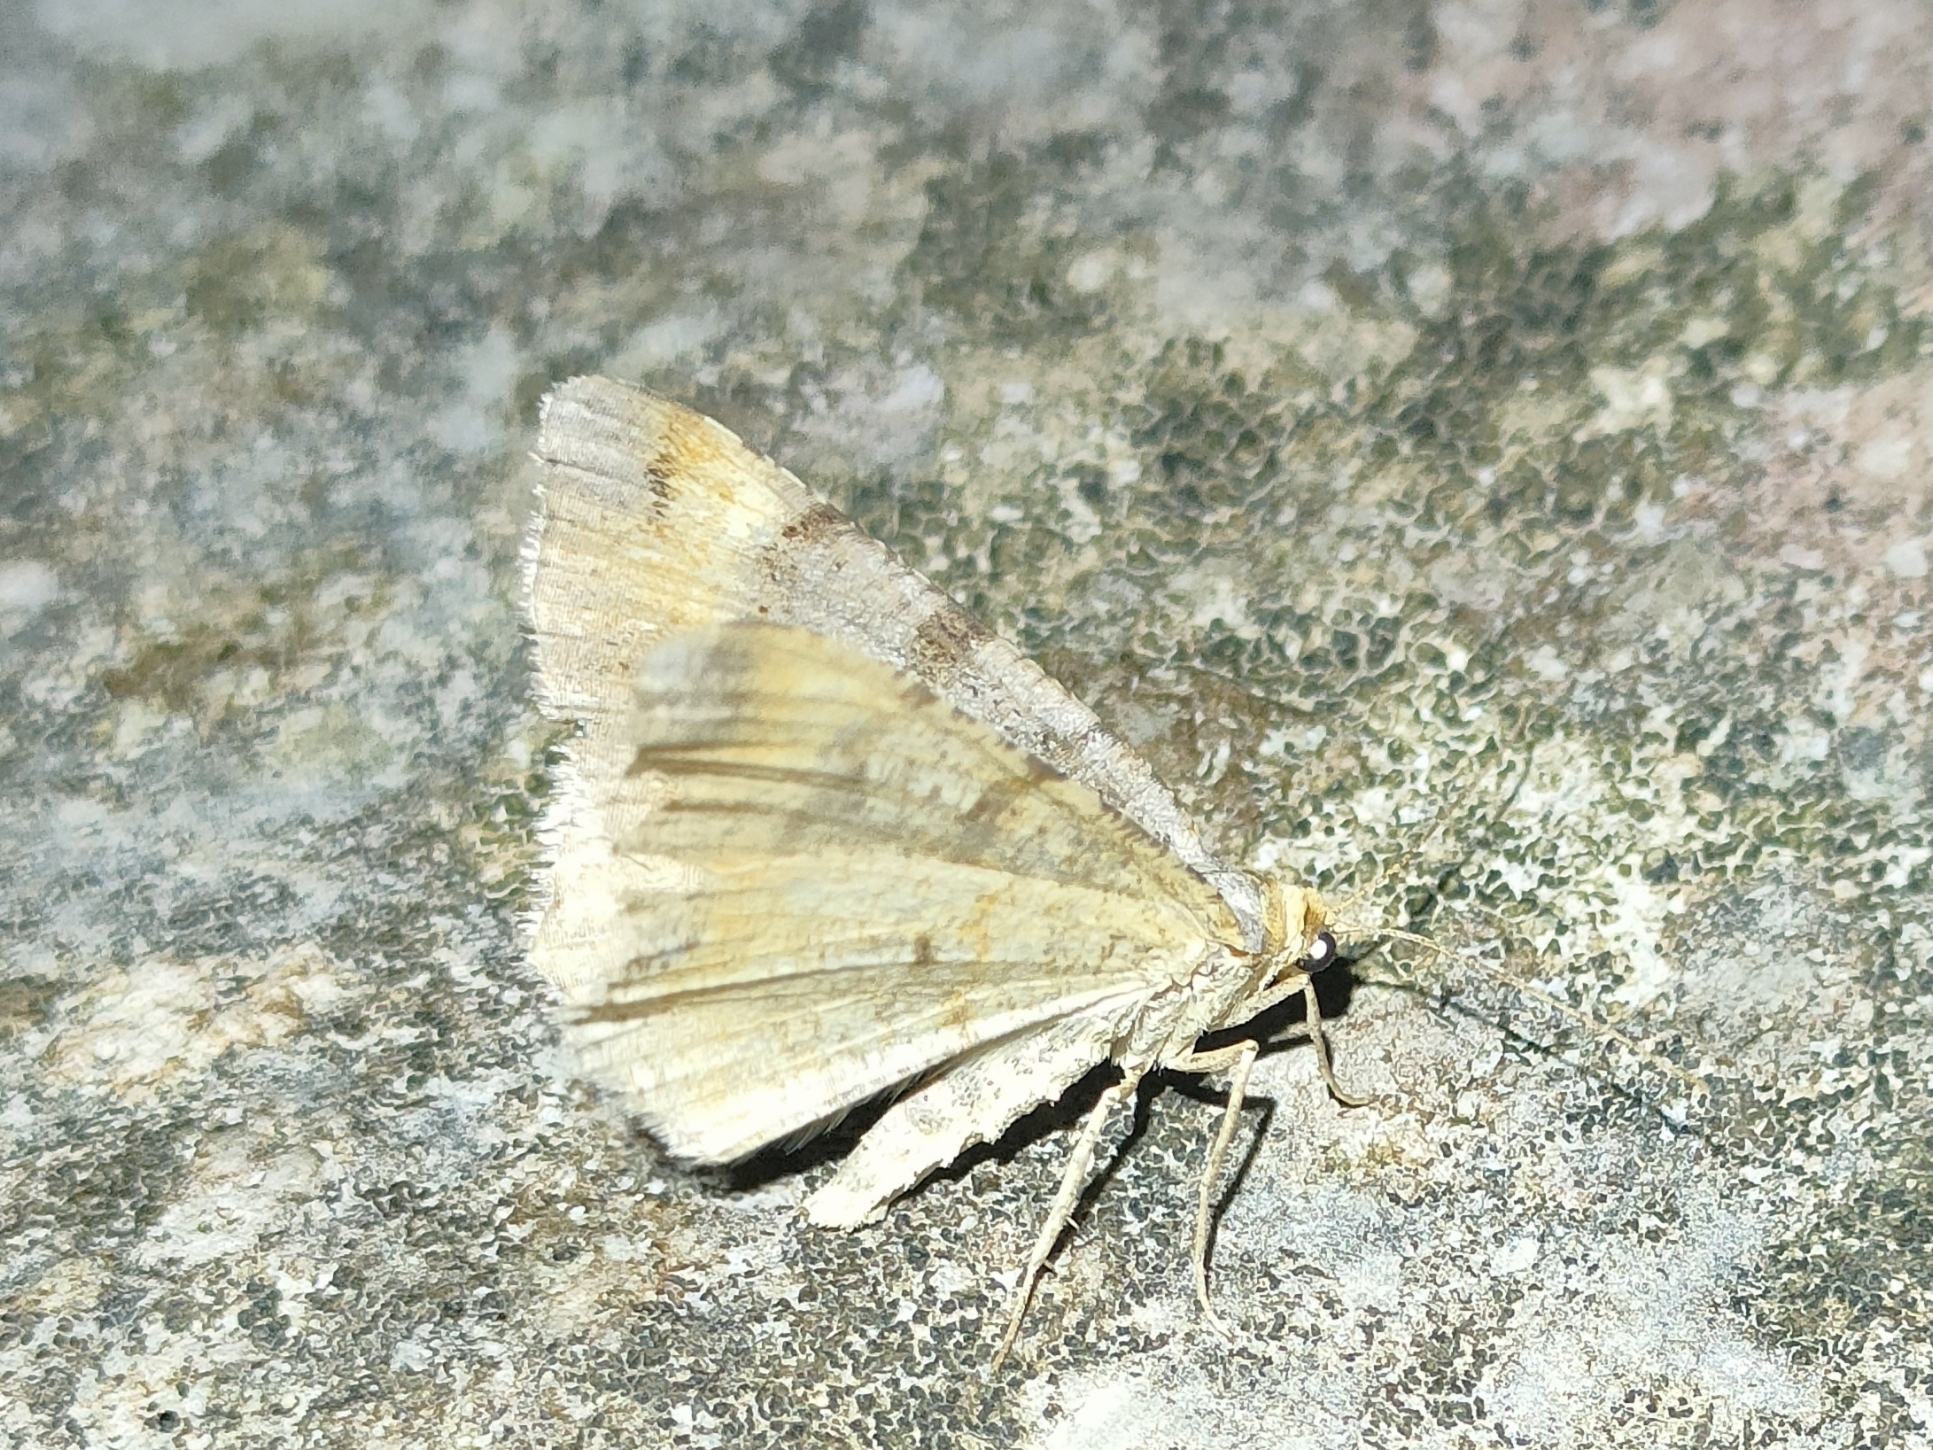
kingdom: Animalia
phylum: Arthropoda
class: Insecta
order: Lepidoptera
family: Geometridae
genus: Macaria
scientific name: Macaria liturata
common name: Tawny-barred angle
